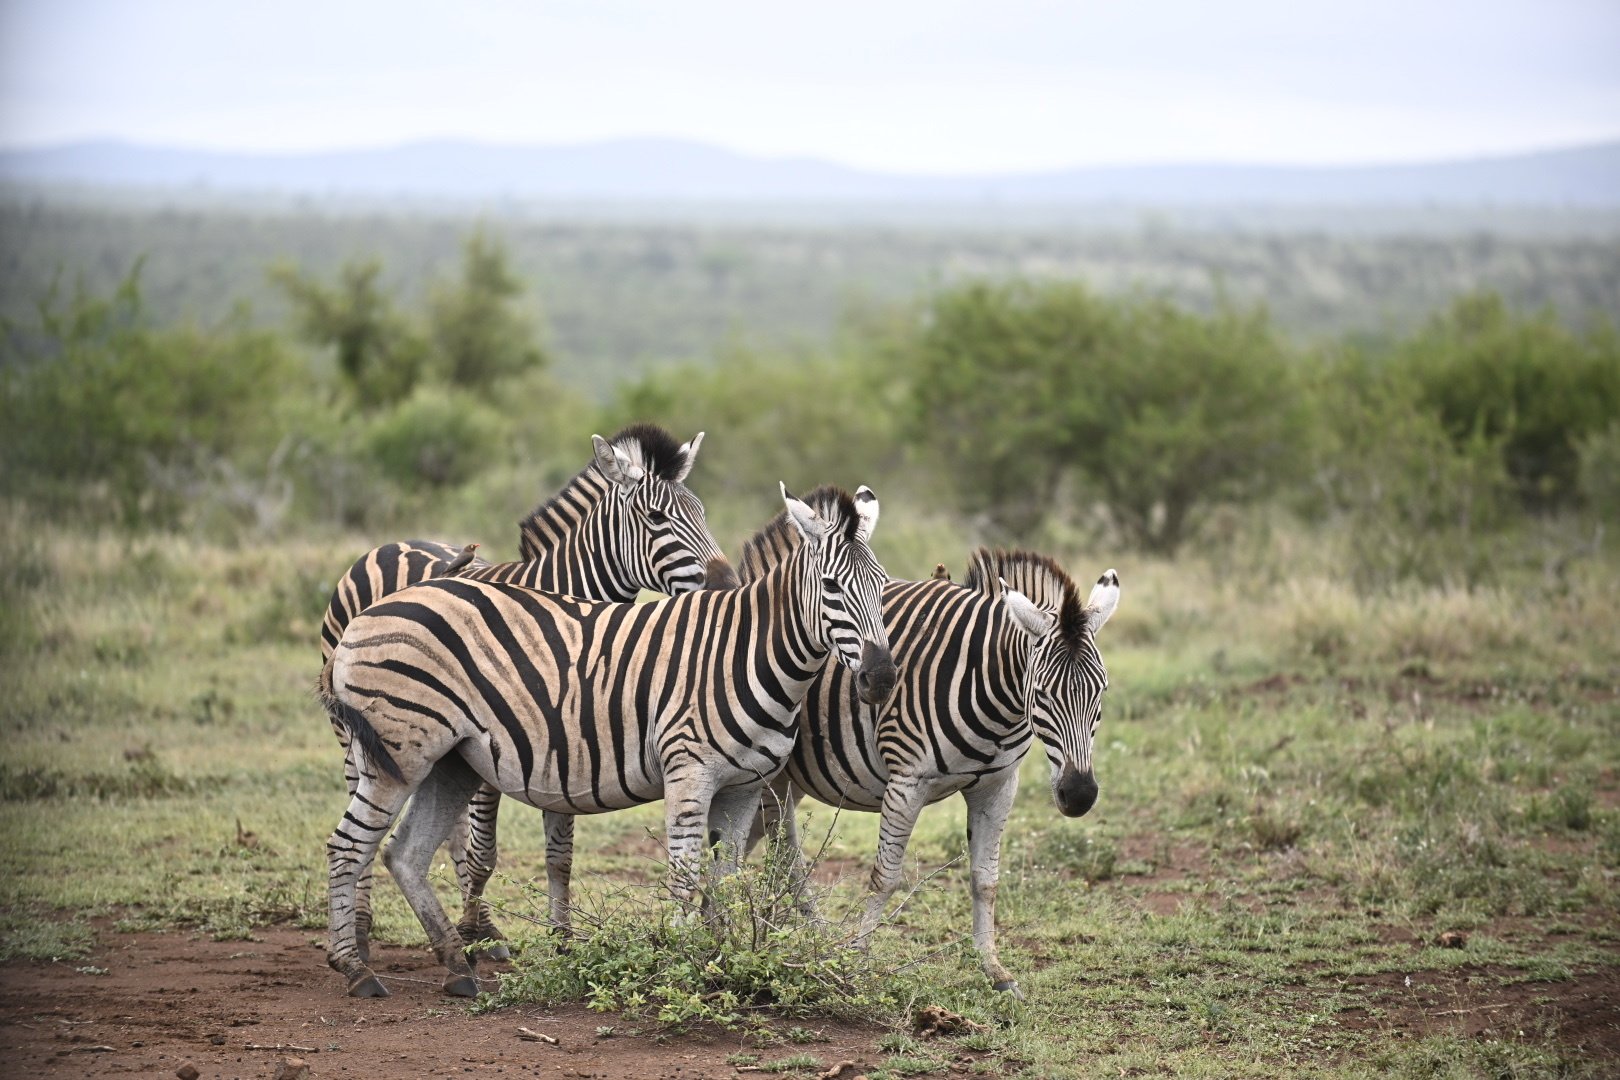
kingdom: Animalia
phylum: Chordata
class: Mammalia
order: Perissodactyla
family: Equidae
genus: Equus
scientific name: Equus quagga
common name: Plains zebra
